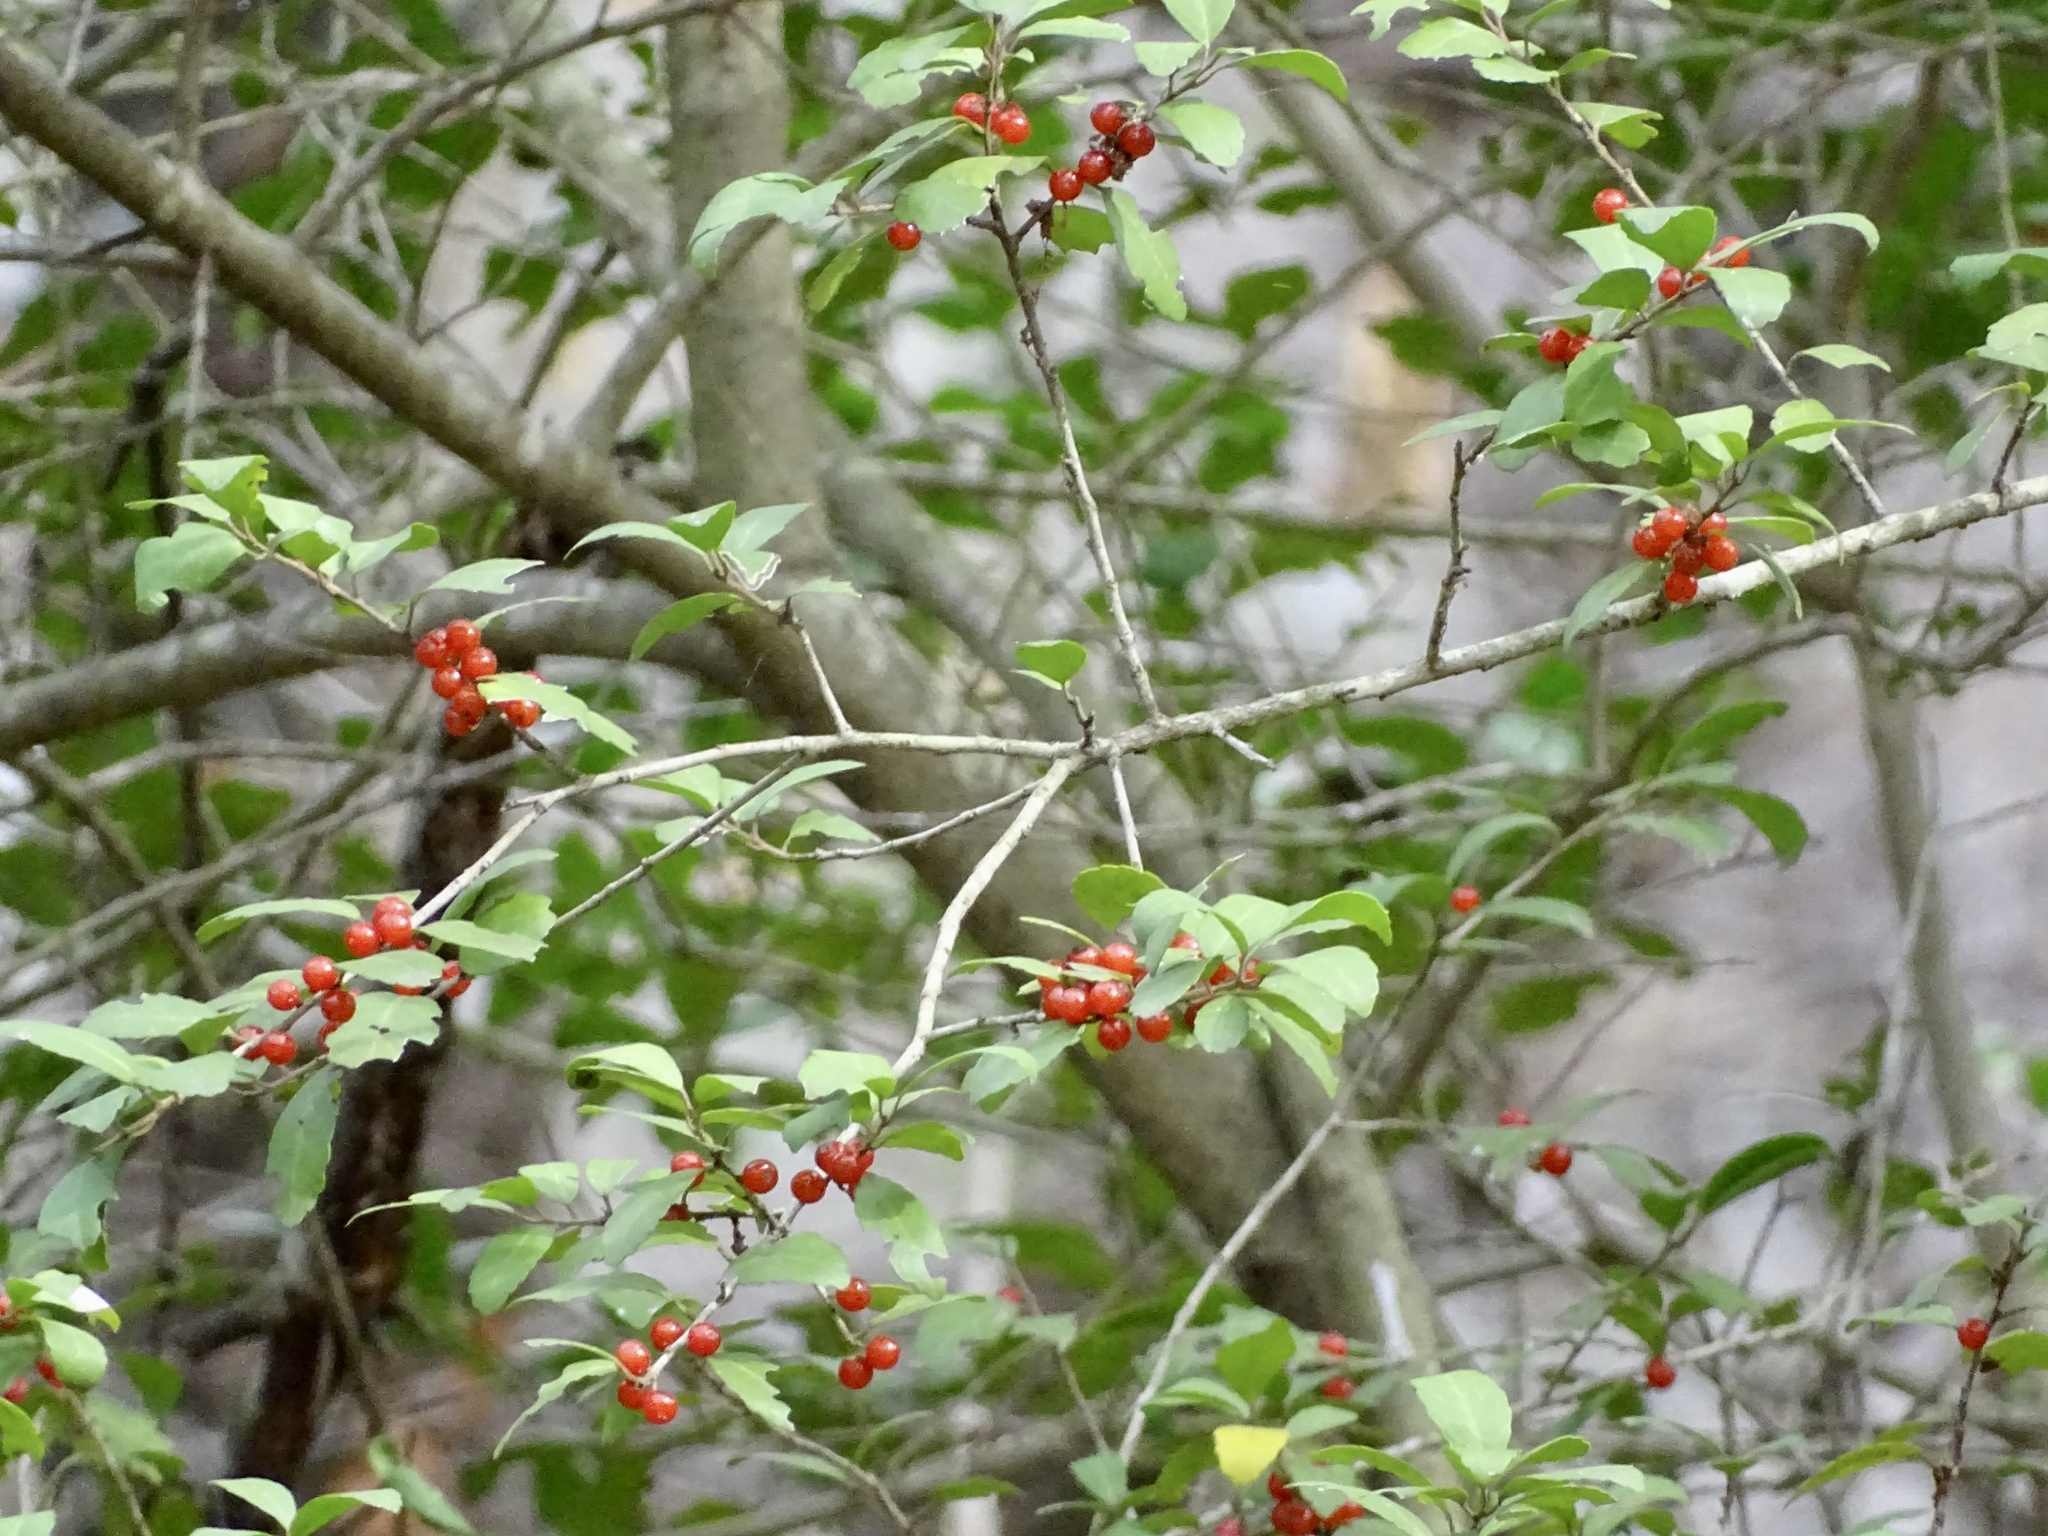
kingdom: Plantae
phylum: Tracheophyta
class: Magnoliopsida
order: Aquifoliales
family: Aquifoliaceae
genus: Ilex
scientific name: Ilex vomitoria
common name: Yaupon holly
